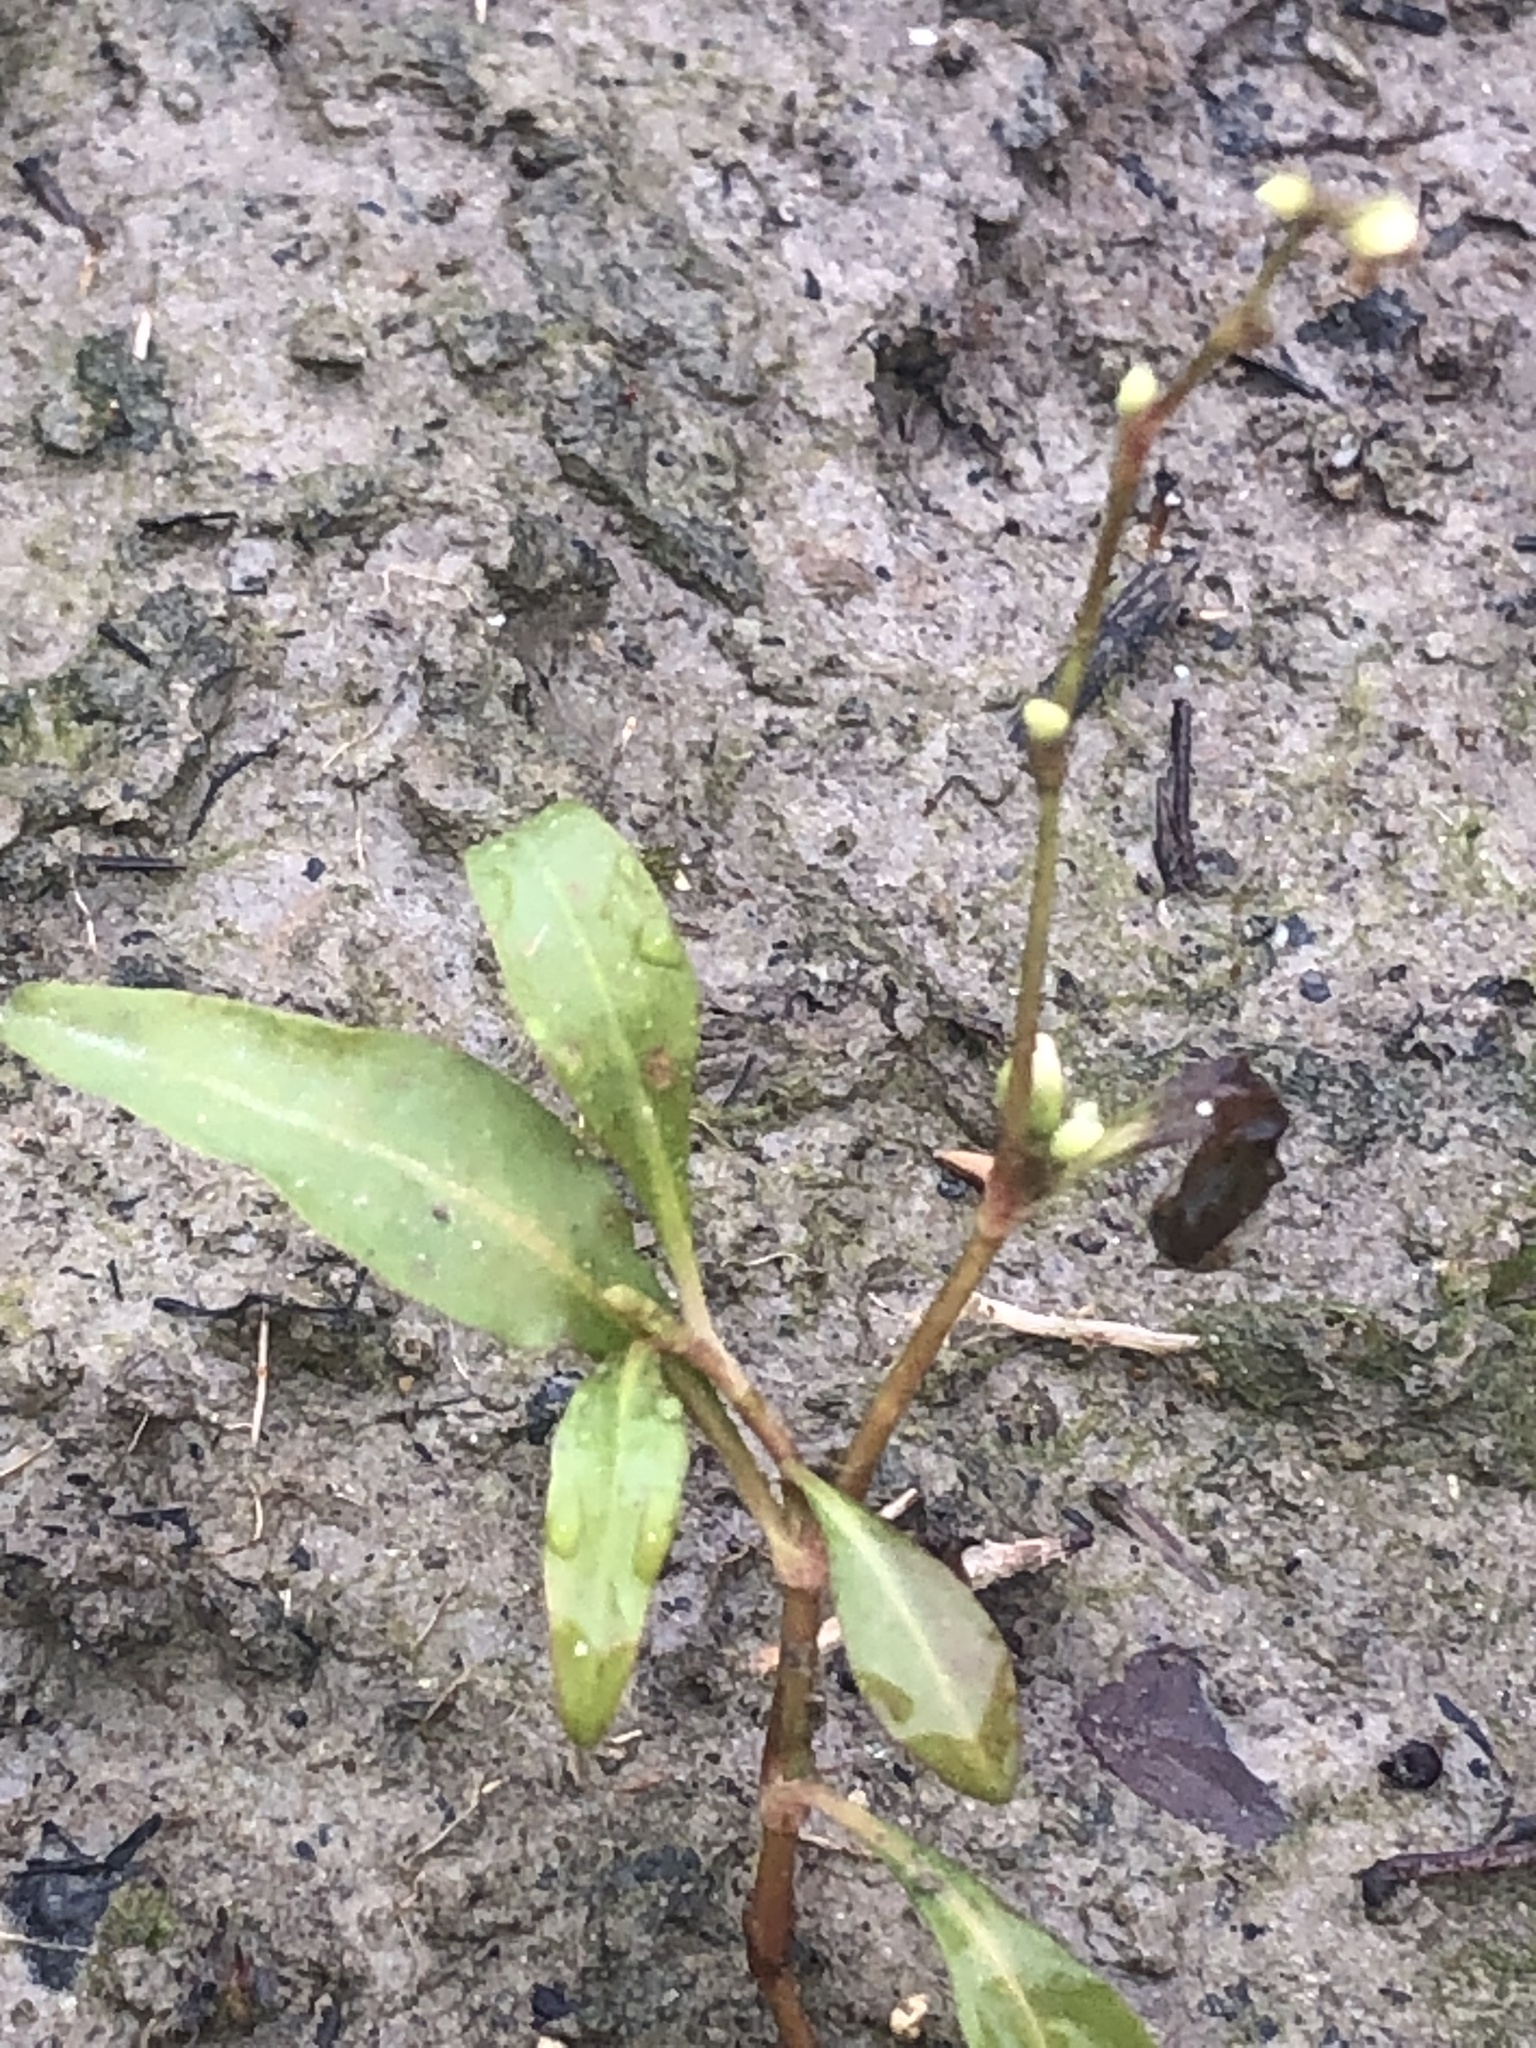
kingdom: Plantae
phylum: Tracheophyta
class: Magnoliopsida
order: Caryophyllales
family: Polygonaceae
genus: Persicaria
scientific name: Persicaria punctata
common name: Dotted smartweed
